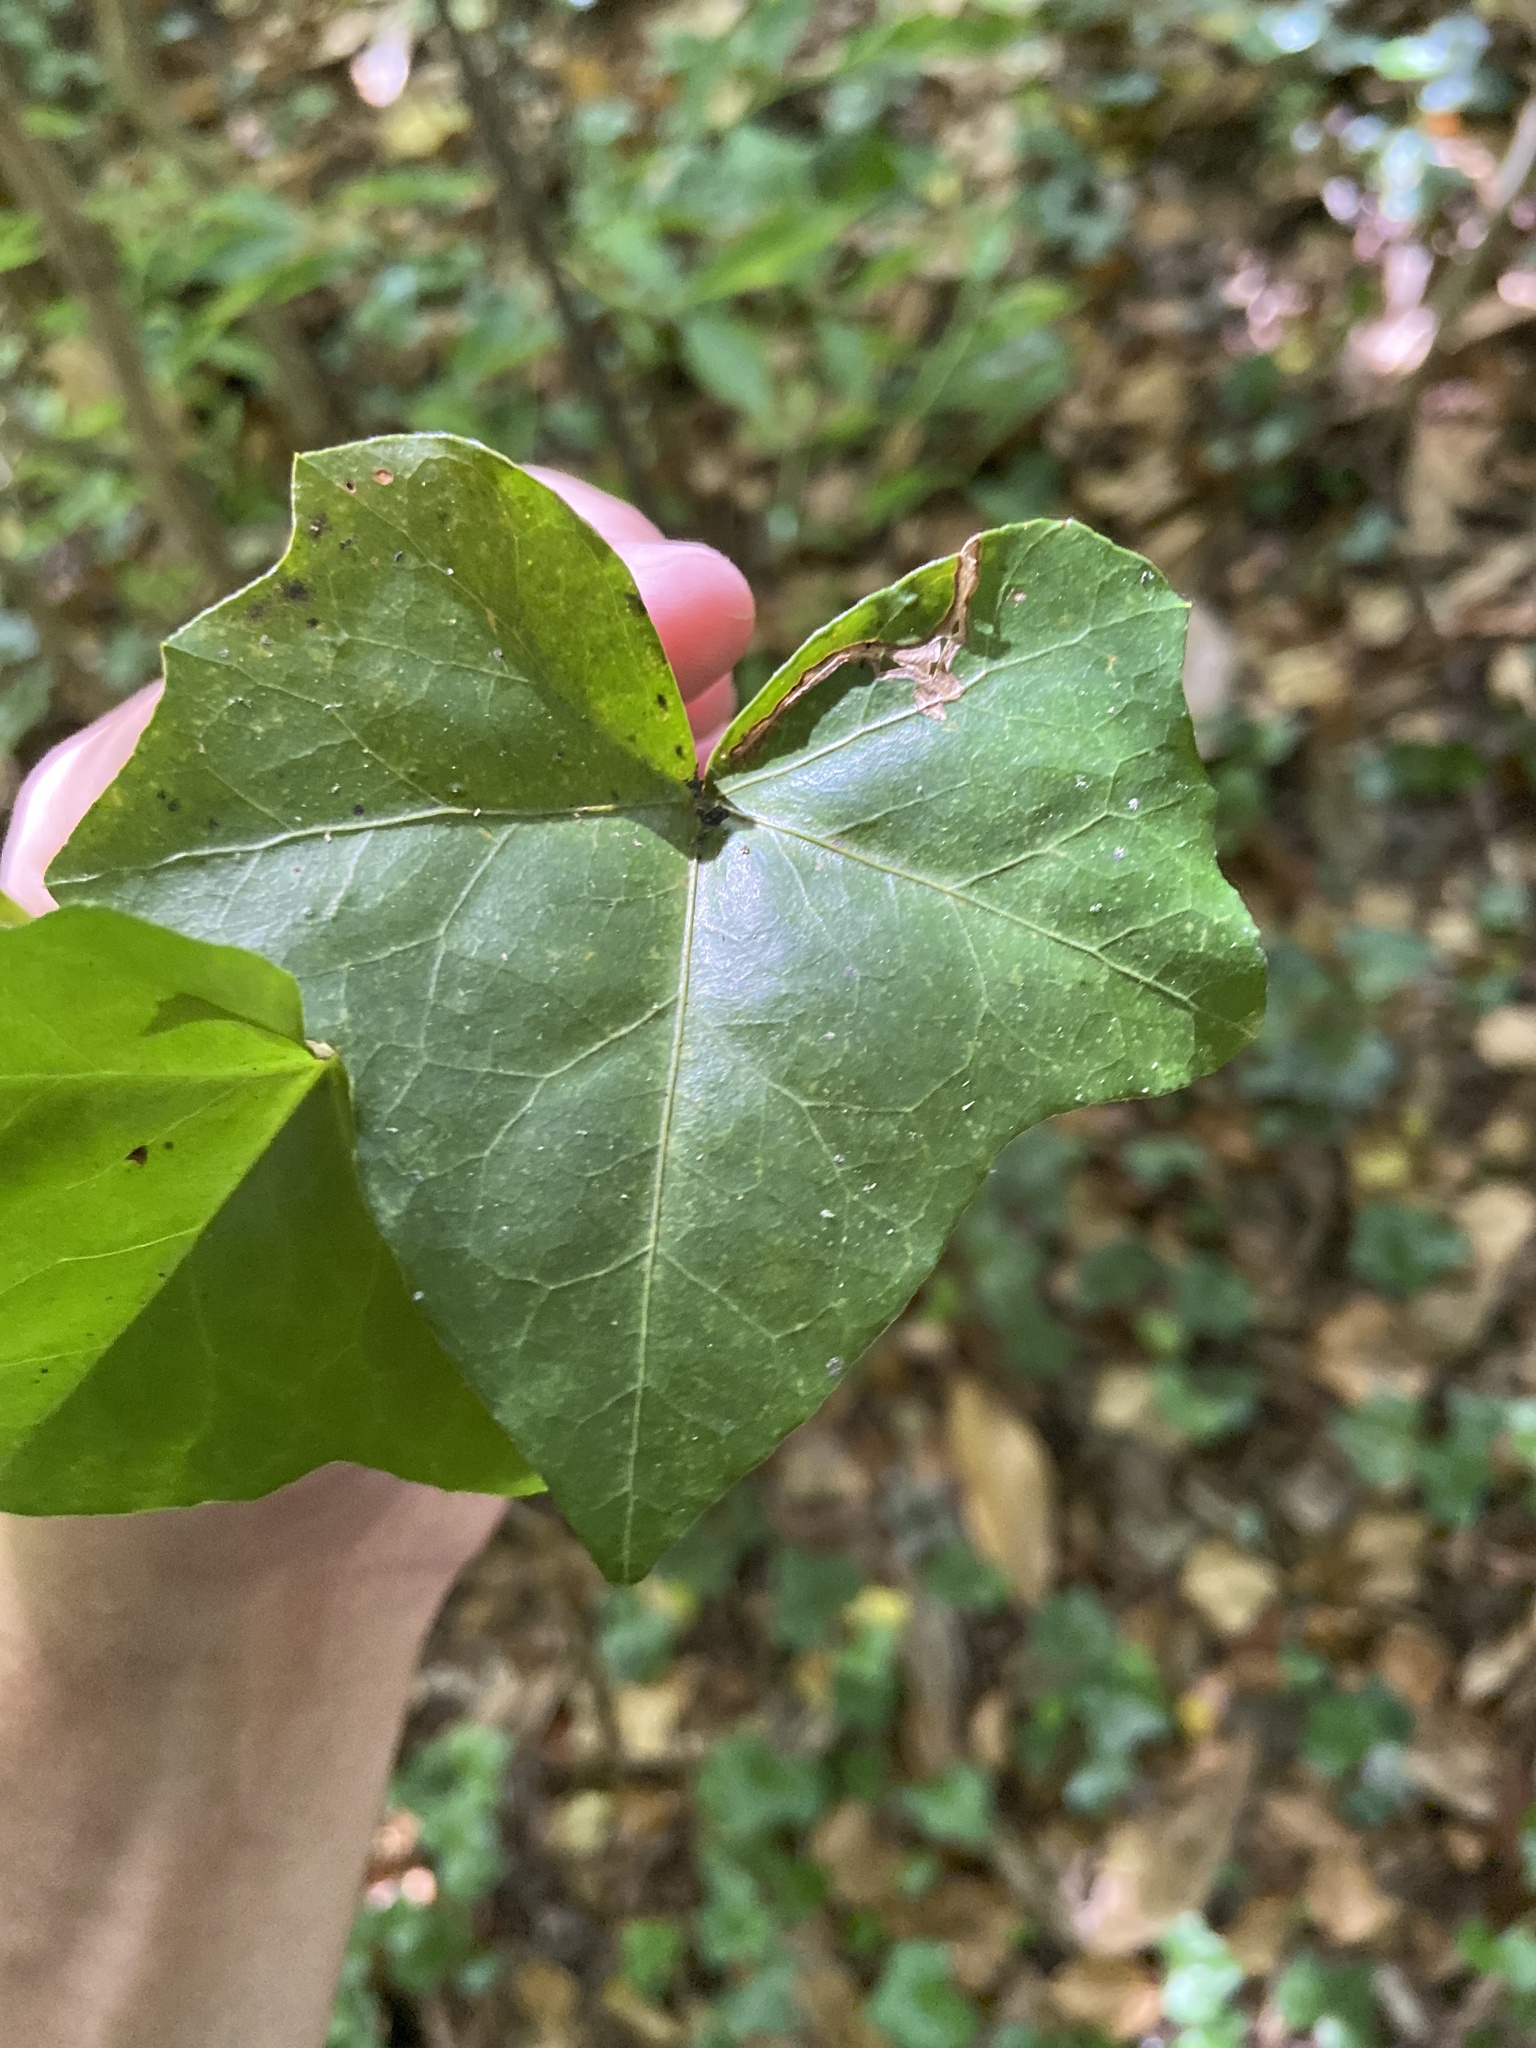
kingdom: Plantae
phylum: Tracheophyta
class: Magnoliopsida
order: Apiales
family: Araliaceae
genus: Hedera
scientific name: Hedera helix
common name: Ivy
